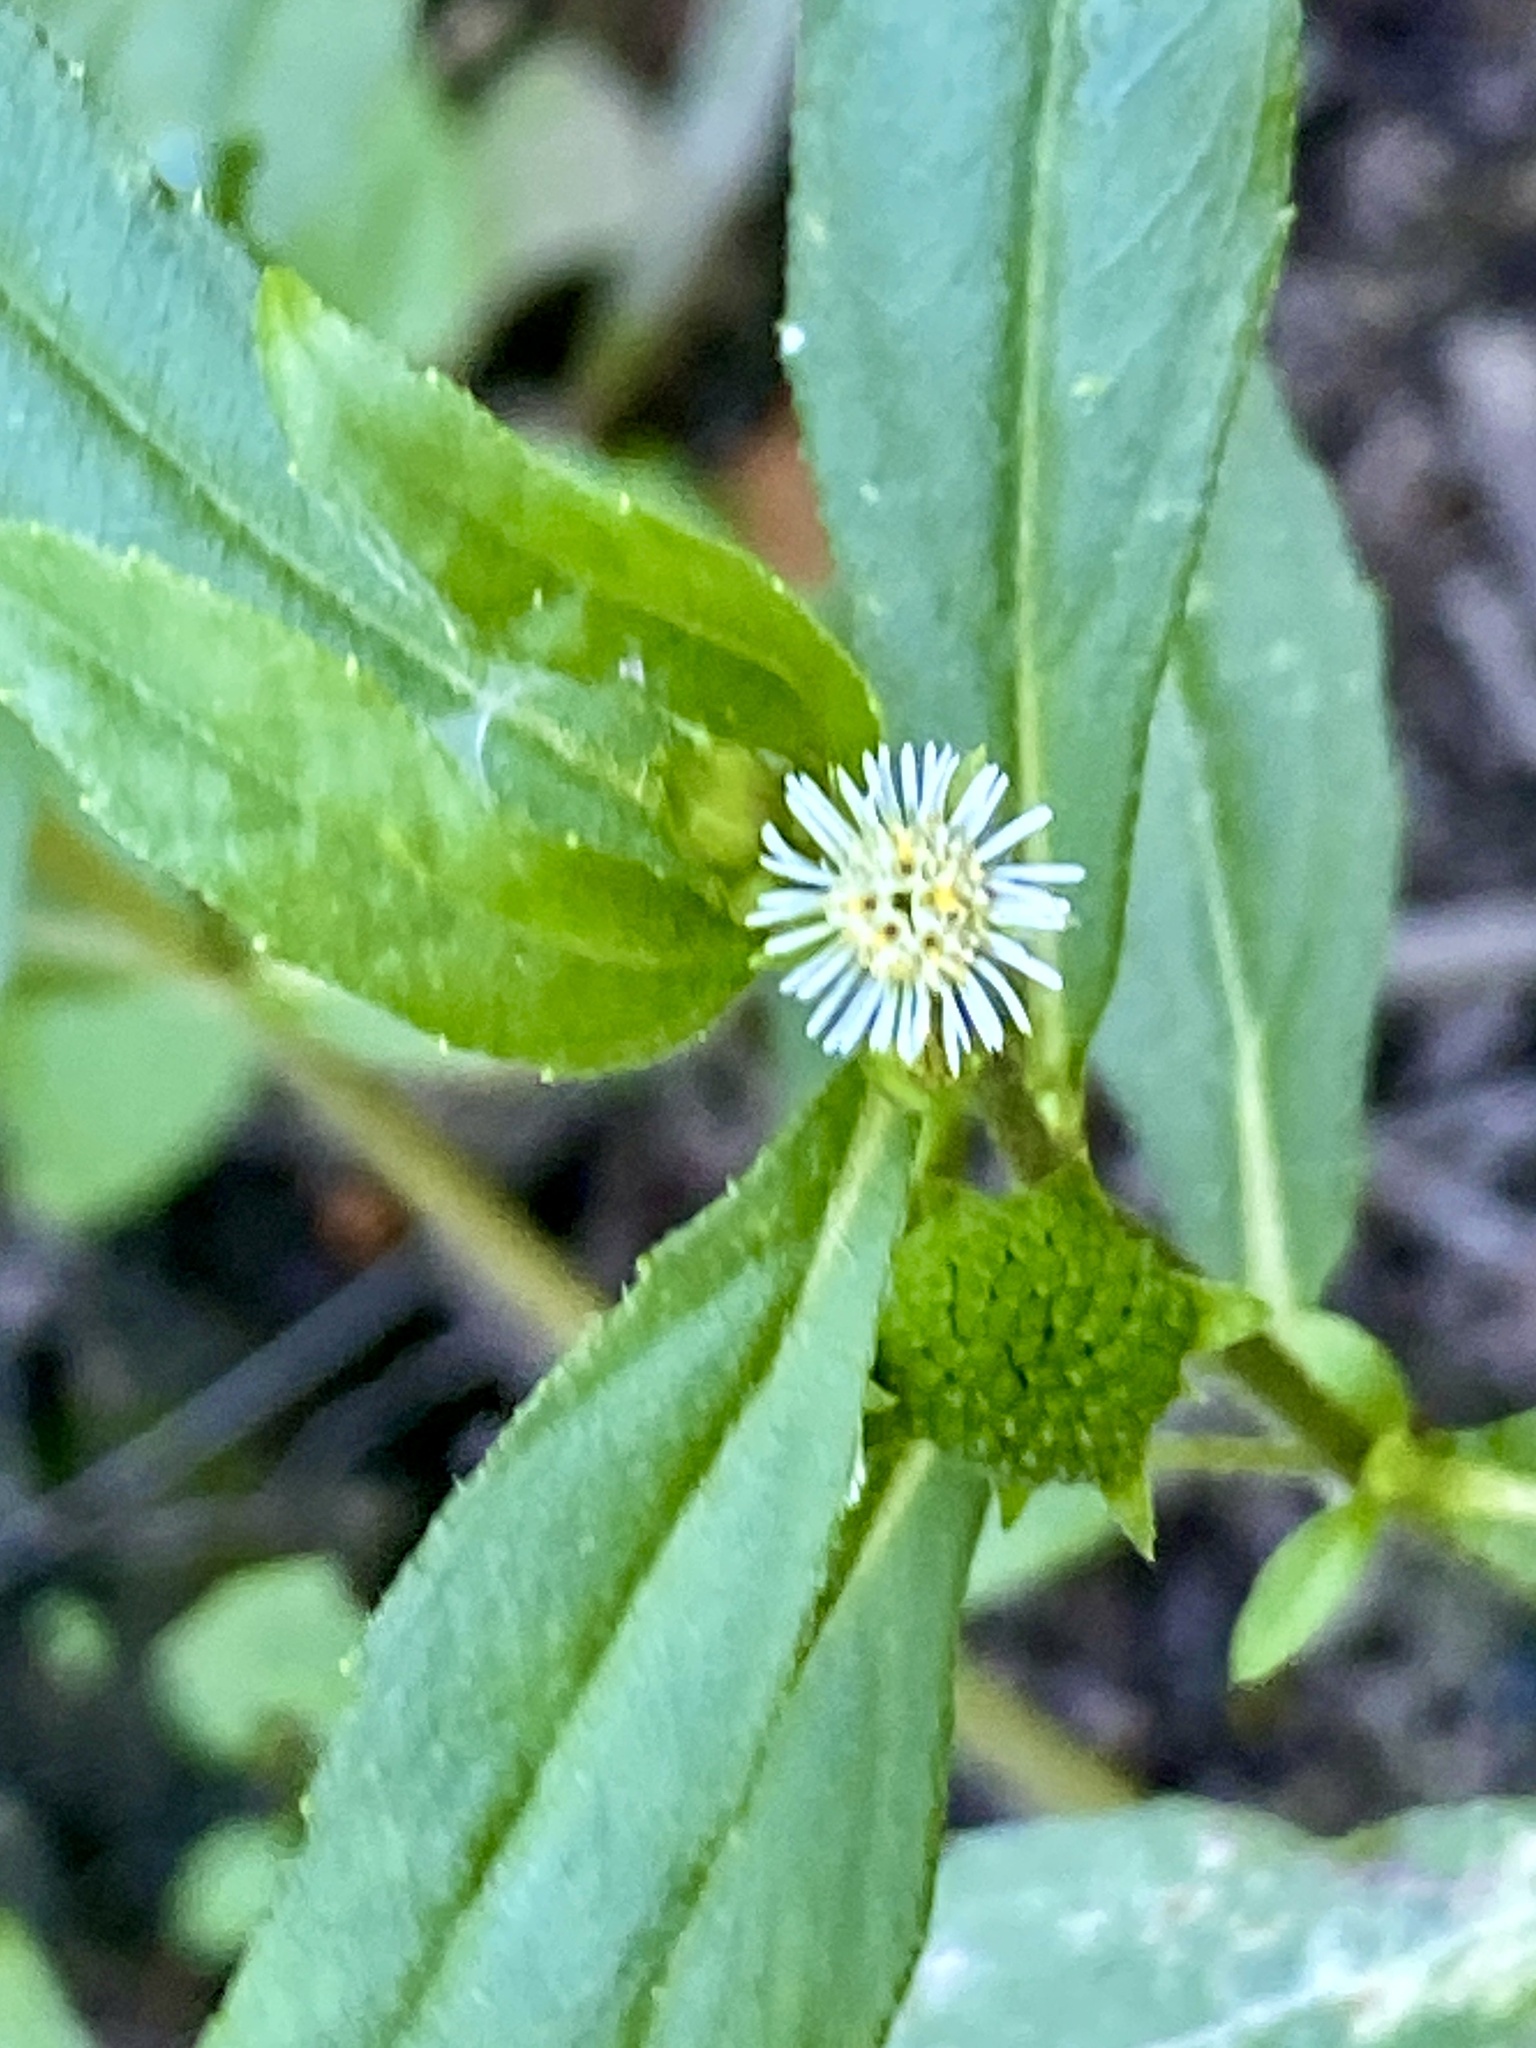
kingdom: Plantae
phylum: Tracheophyta
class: Magnoliopsida
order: Asterales
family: Asteraceae
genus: Eclipta
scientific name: Eclipta prostrata
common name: False daisy
